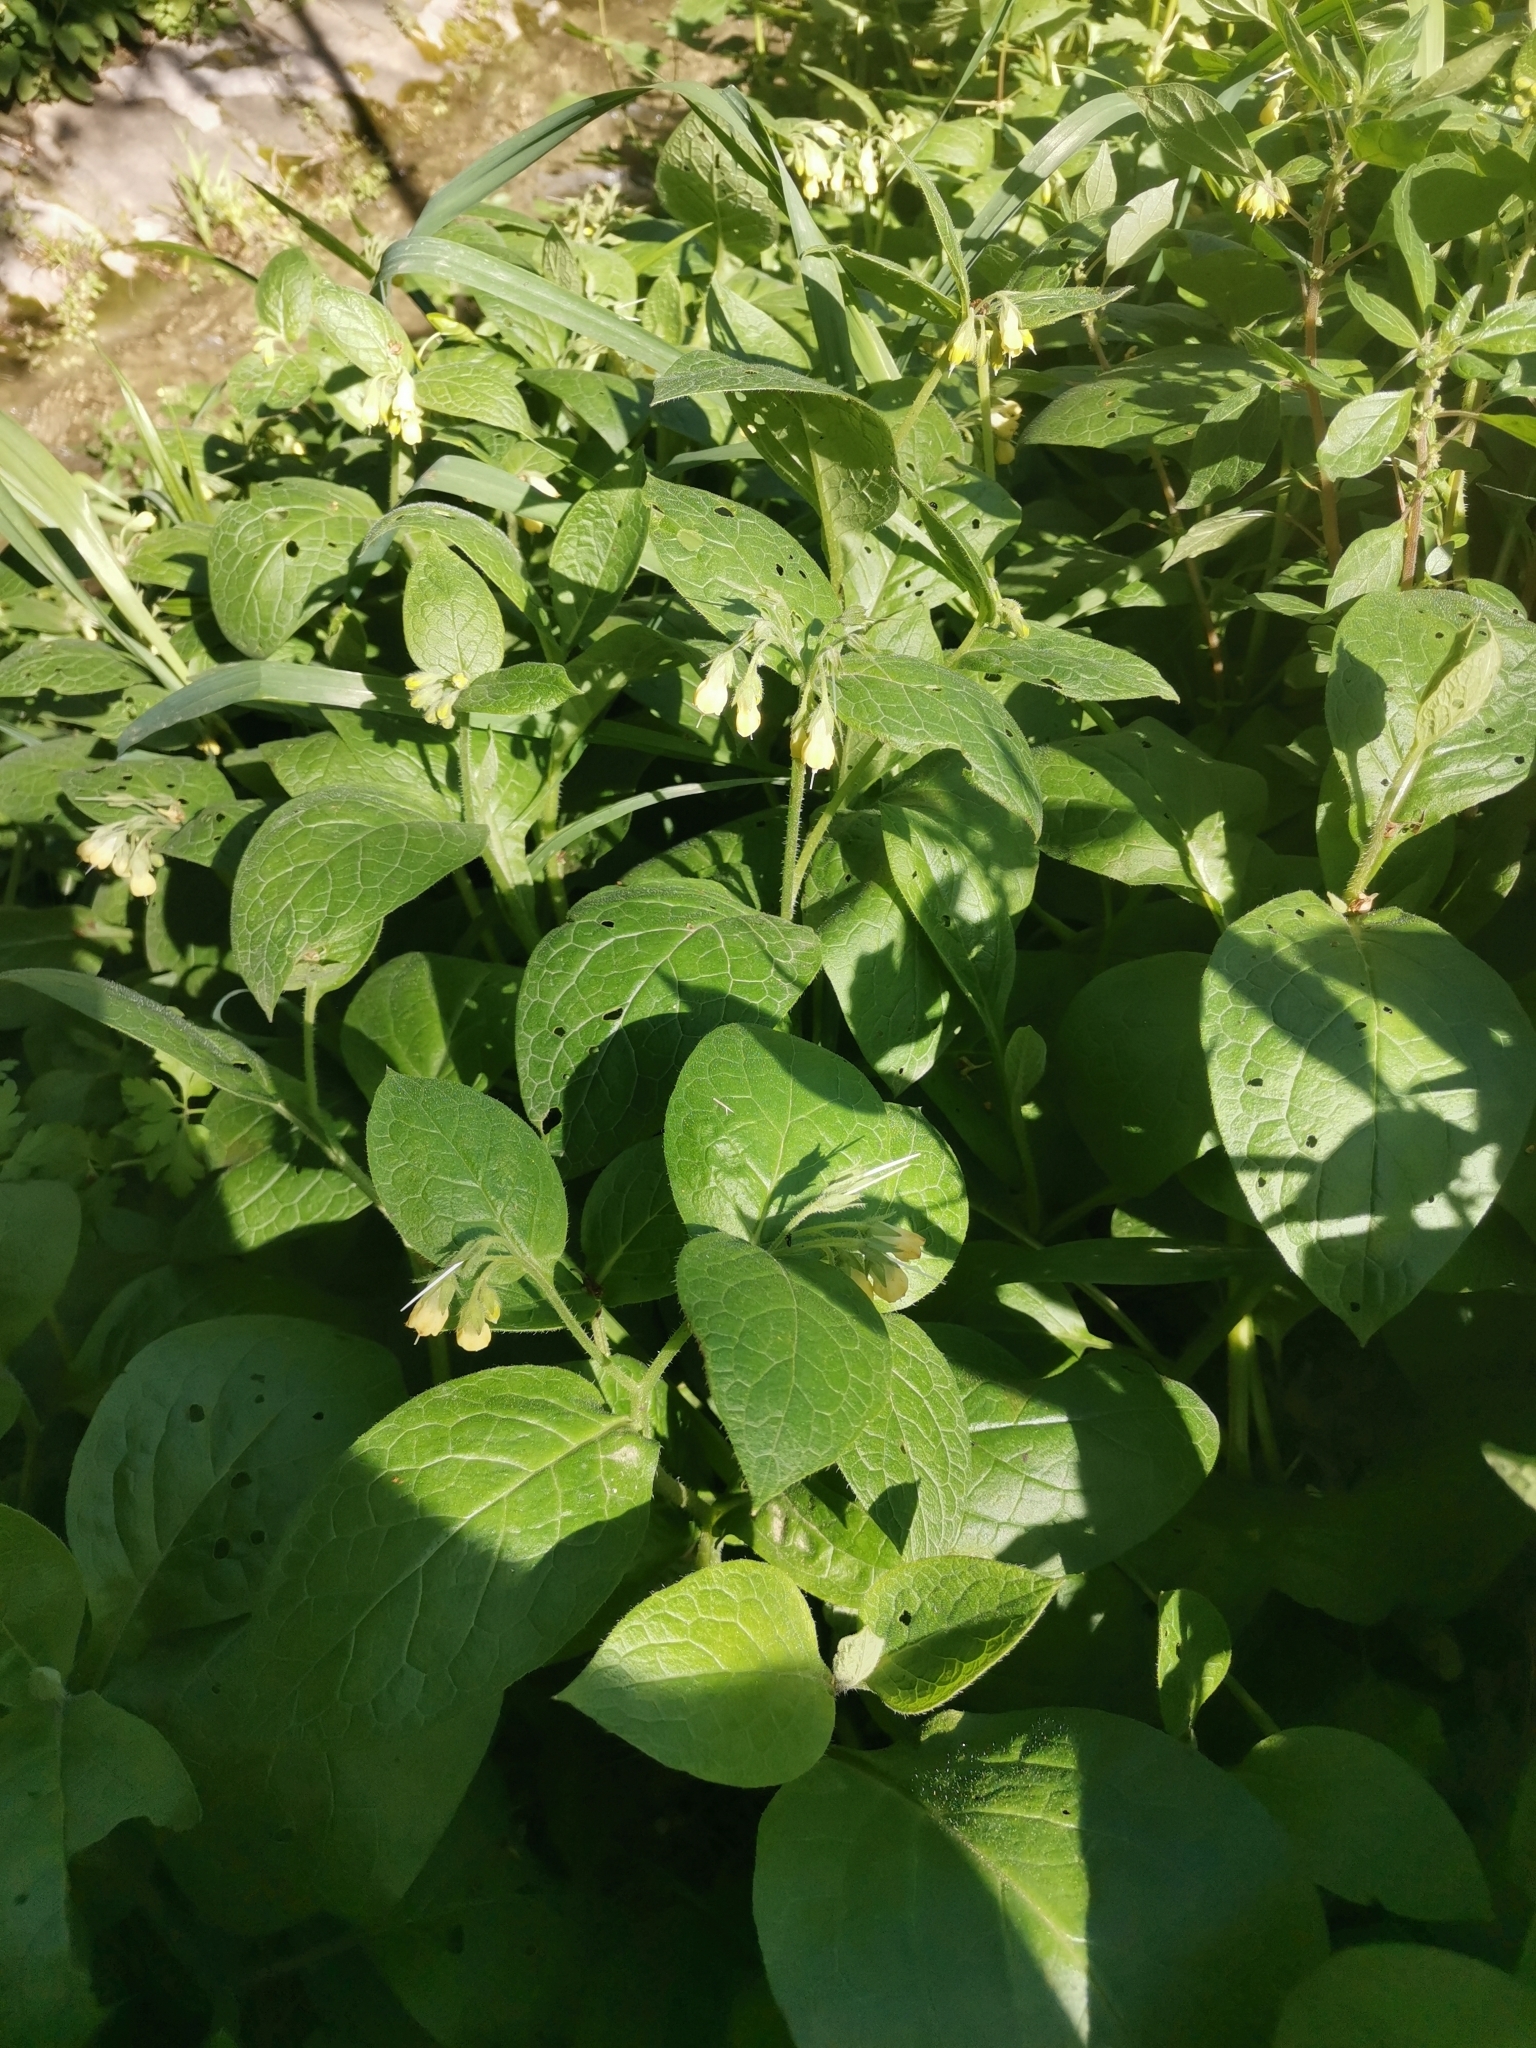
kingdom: Plantae
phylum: Tracheophyta
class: Magnoliopsida
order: Boraginales
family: Boraginaceae
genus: Symphytum
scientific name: Symphytum bulbosum
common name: Bulbous comfrey
